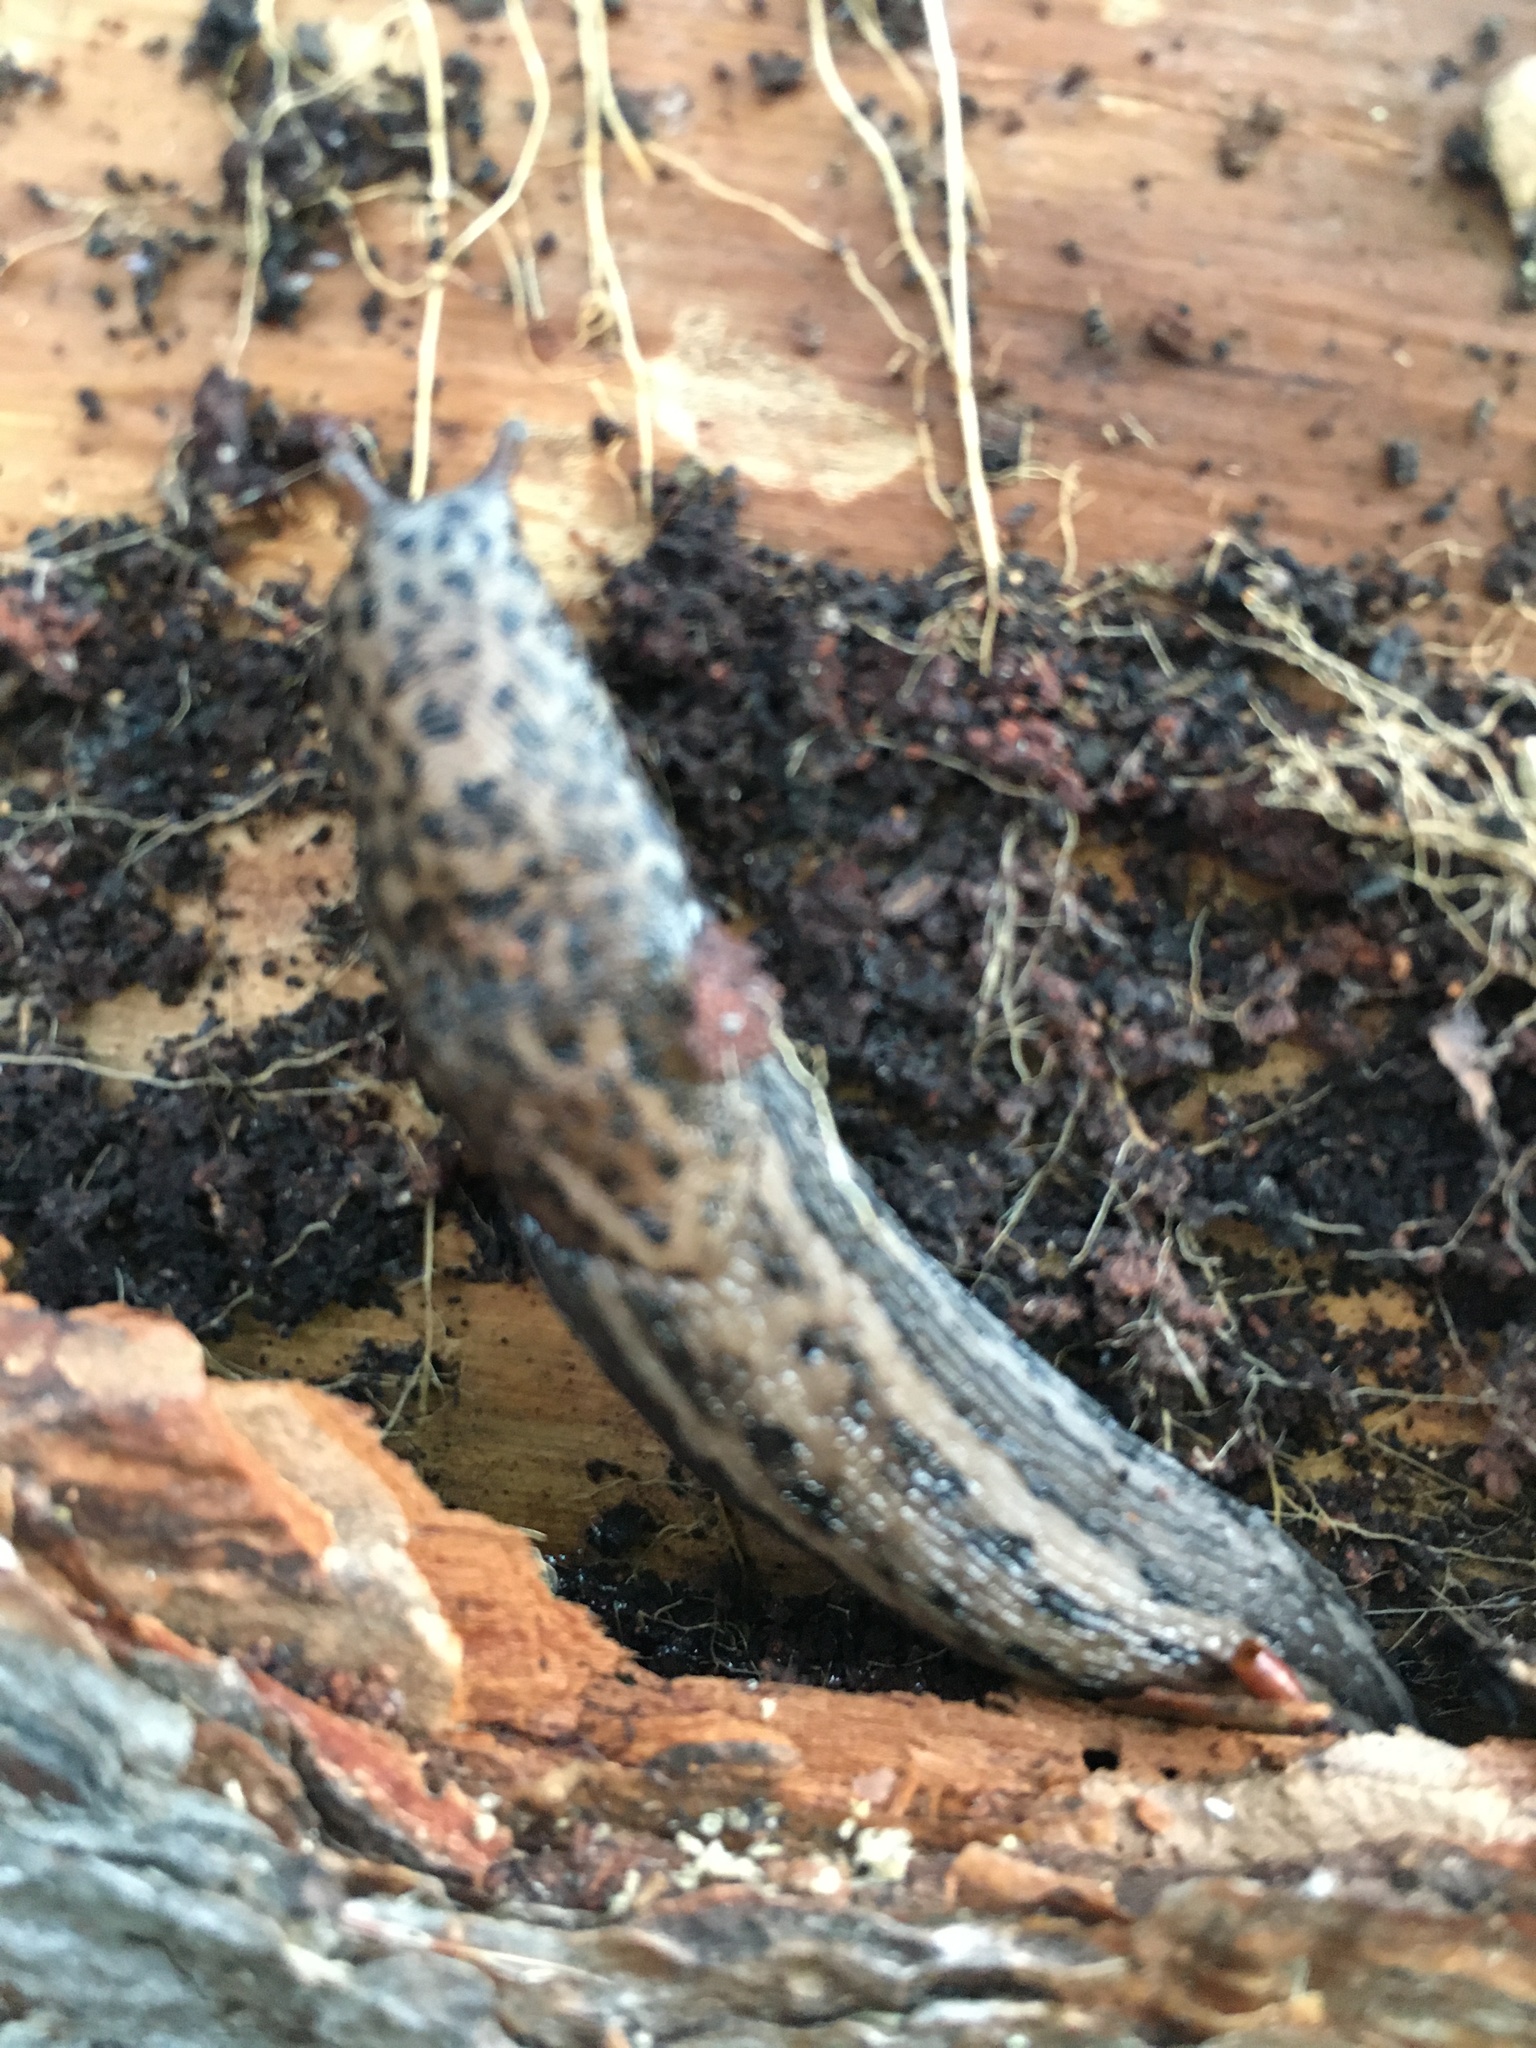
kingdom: Animalia
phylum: Mollusca
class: Gastropoda
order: Stylommatophora
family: Limacidae
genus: Limax
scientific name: Limax maximus
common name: Great grey slug
